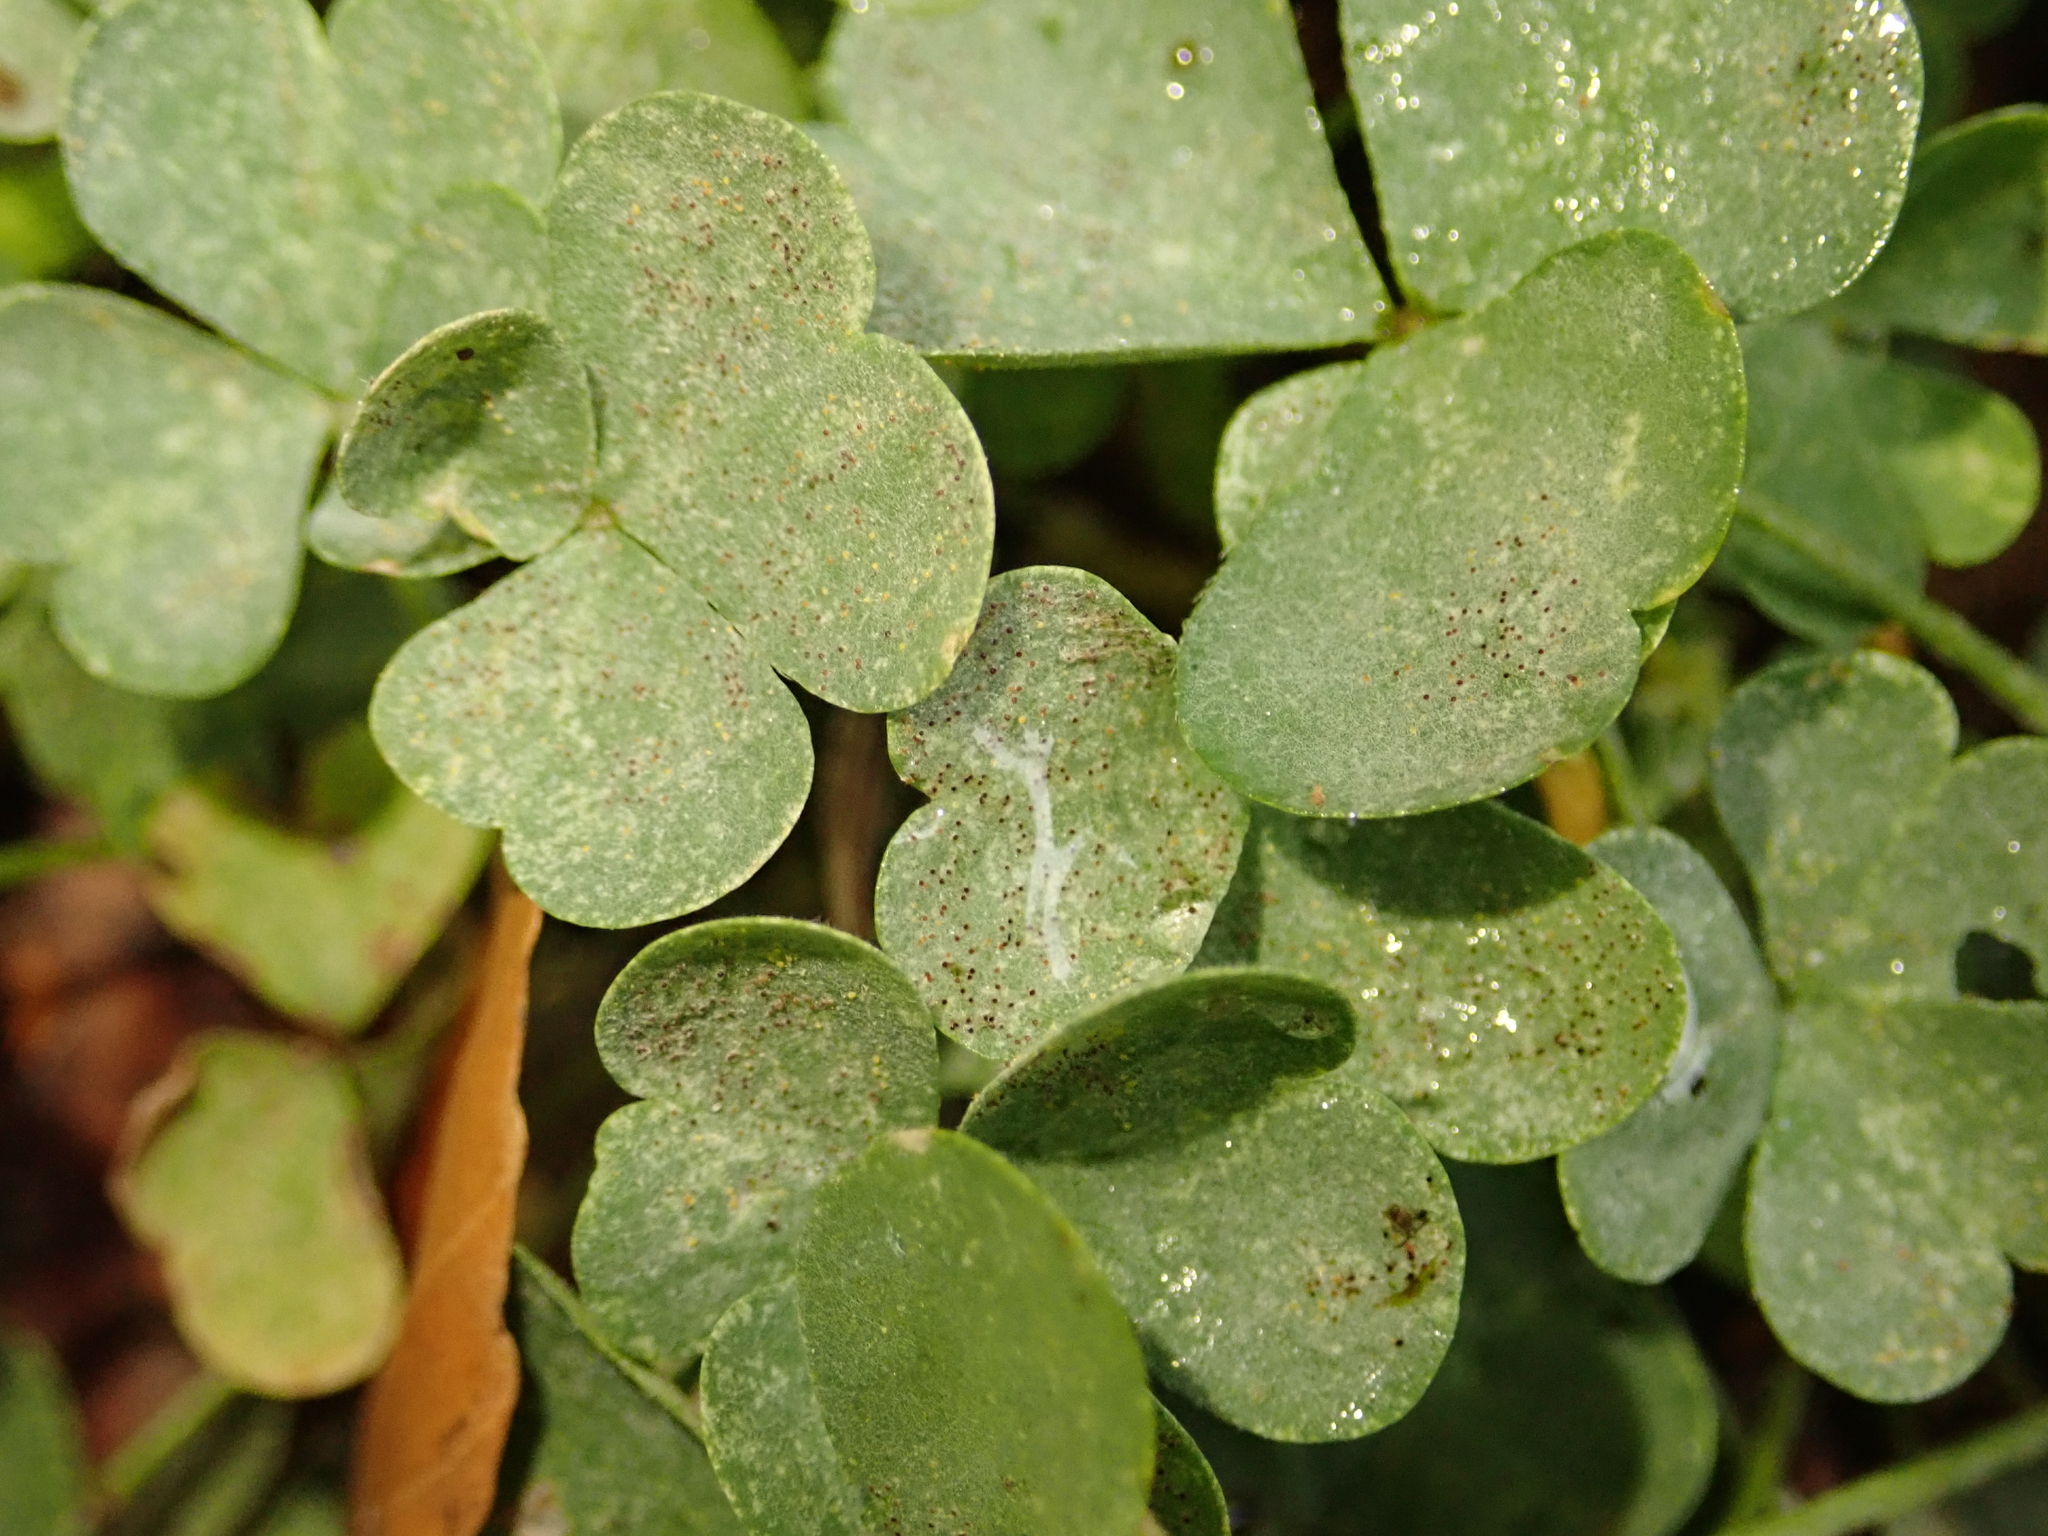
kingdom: Plantae
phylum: Tracheophyta
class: Magnoliopsida
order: Oxalidales
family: Oxalidaceae
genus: Oxalis
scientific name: Oxalis corniculata
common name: Procumbent yellow-sorrel
